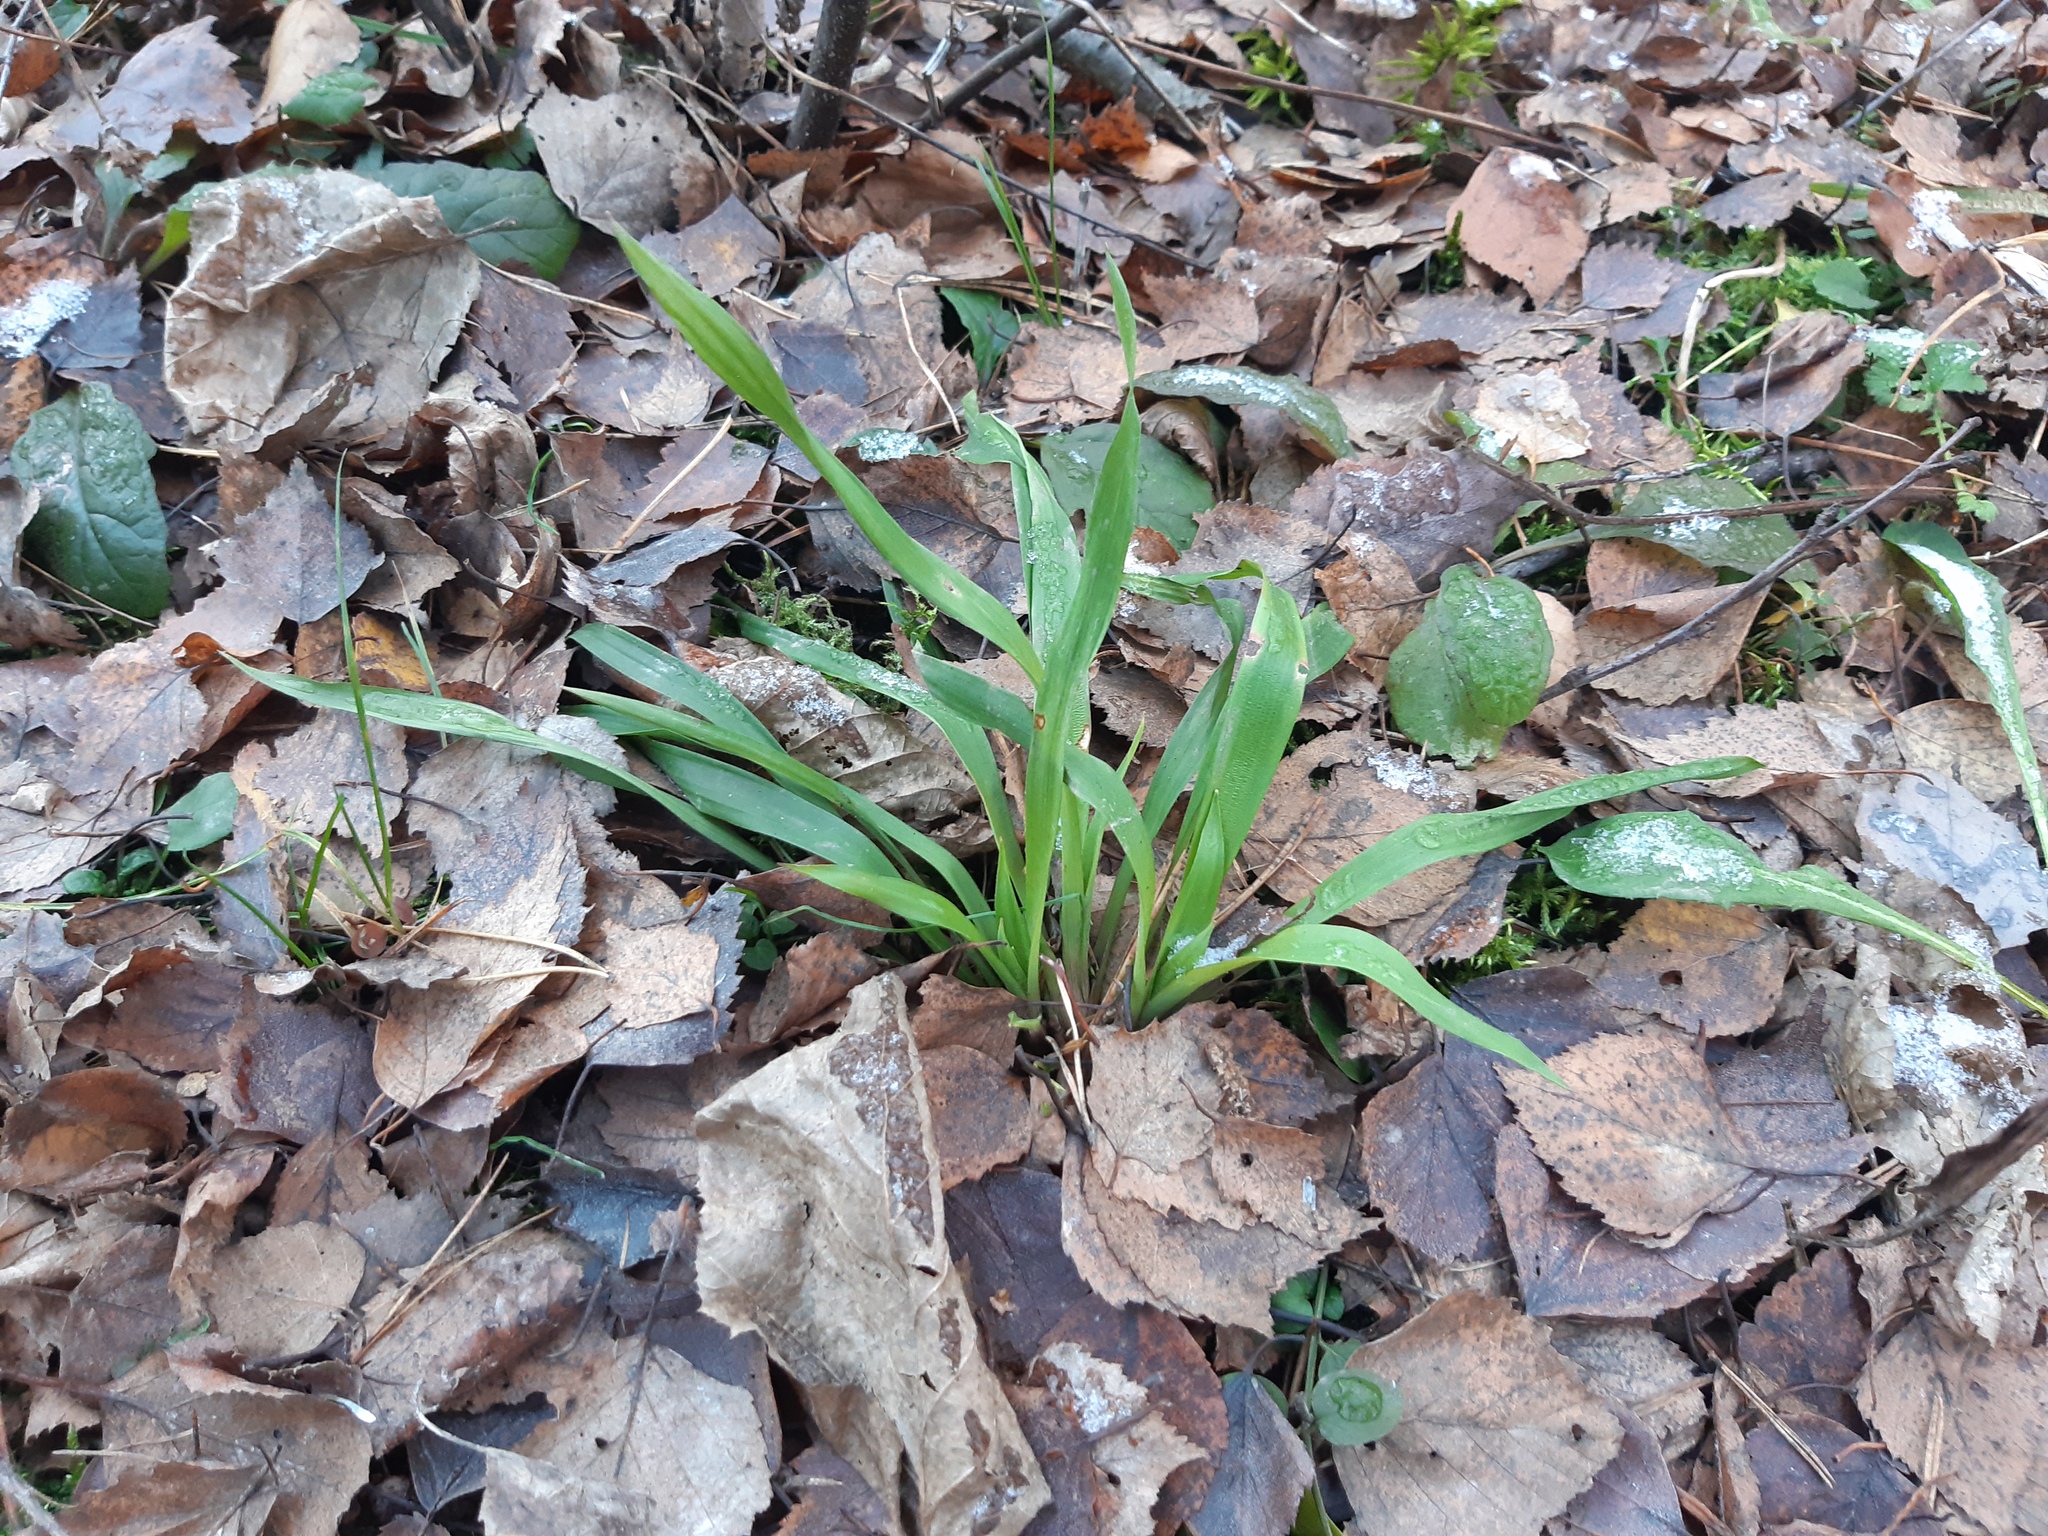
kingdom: Plantae
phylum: Tracheophyta
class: Liliopsida
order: Poales
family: Juncaceae
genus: Luzula
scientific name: Luzula pilosa
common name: Hairy wood-rush
